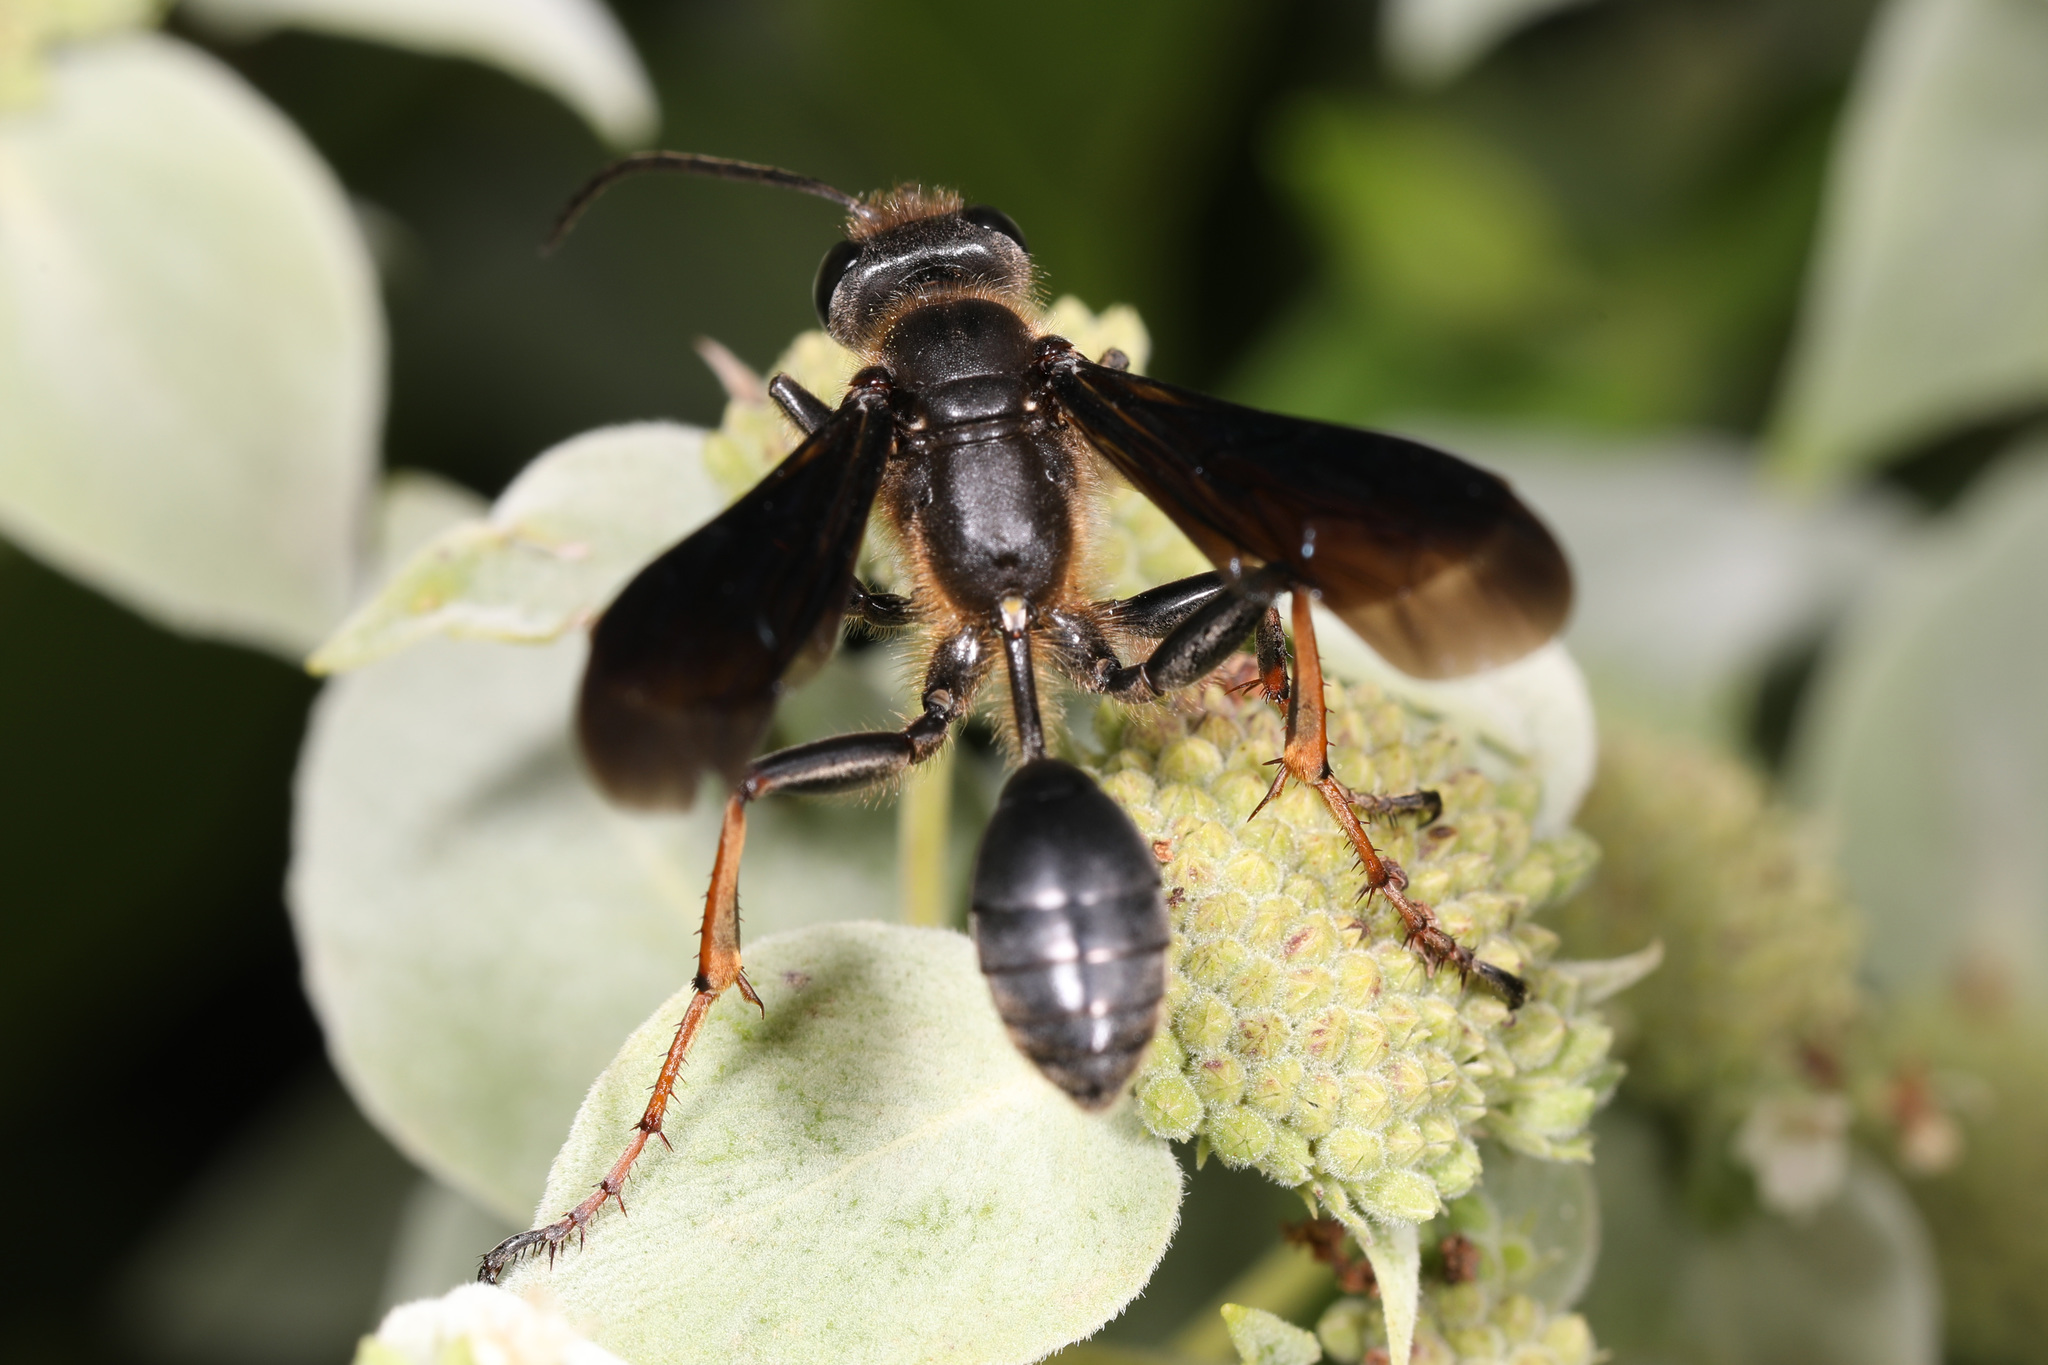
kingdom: Animalia
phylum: Arthropoda
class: Insecta
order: Hymenoptera
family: Sphecidae
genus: Isodontia
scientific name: Isodontia auripes
